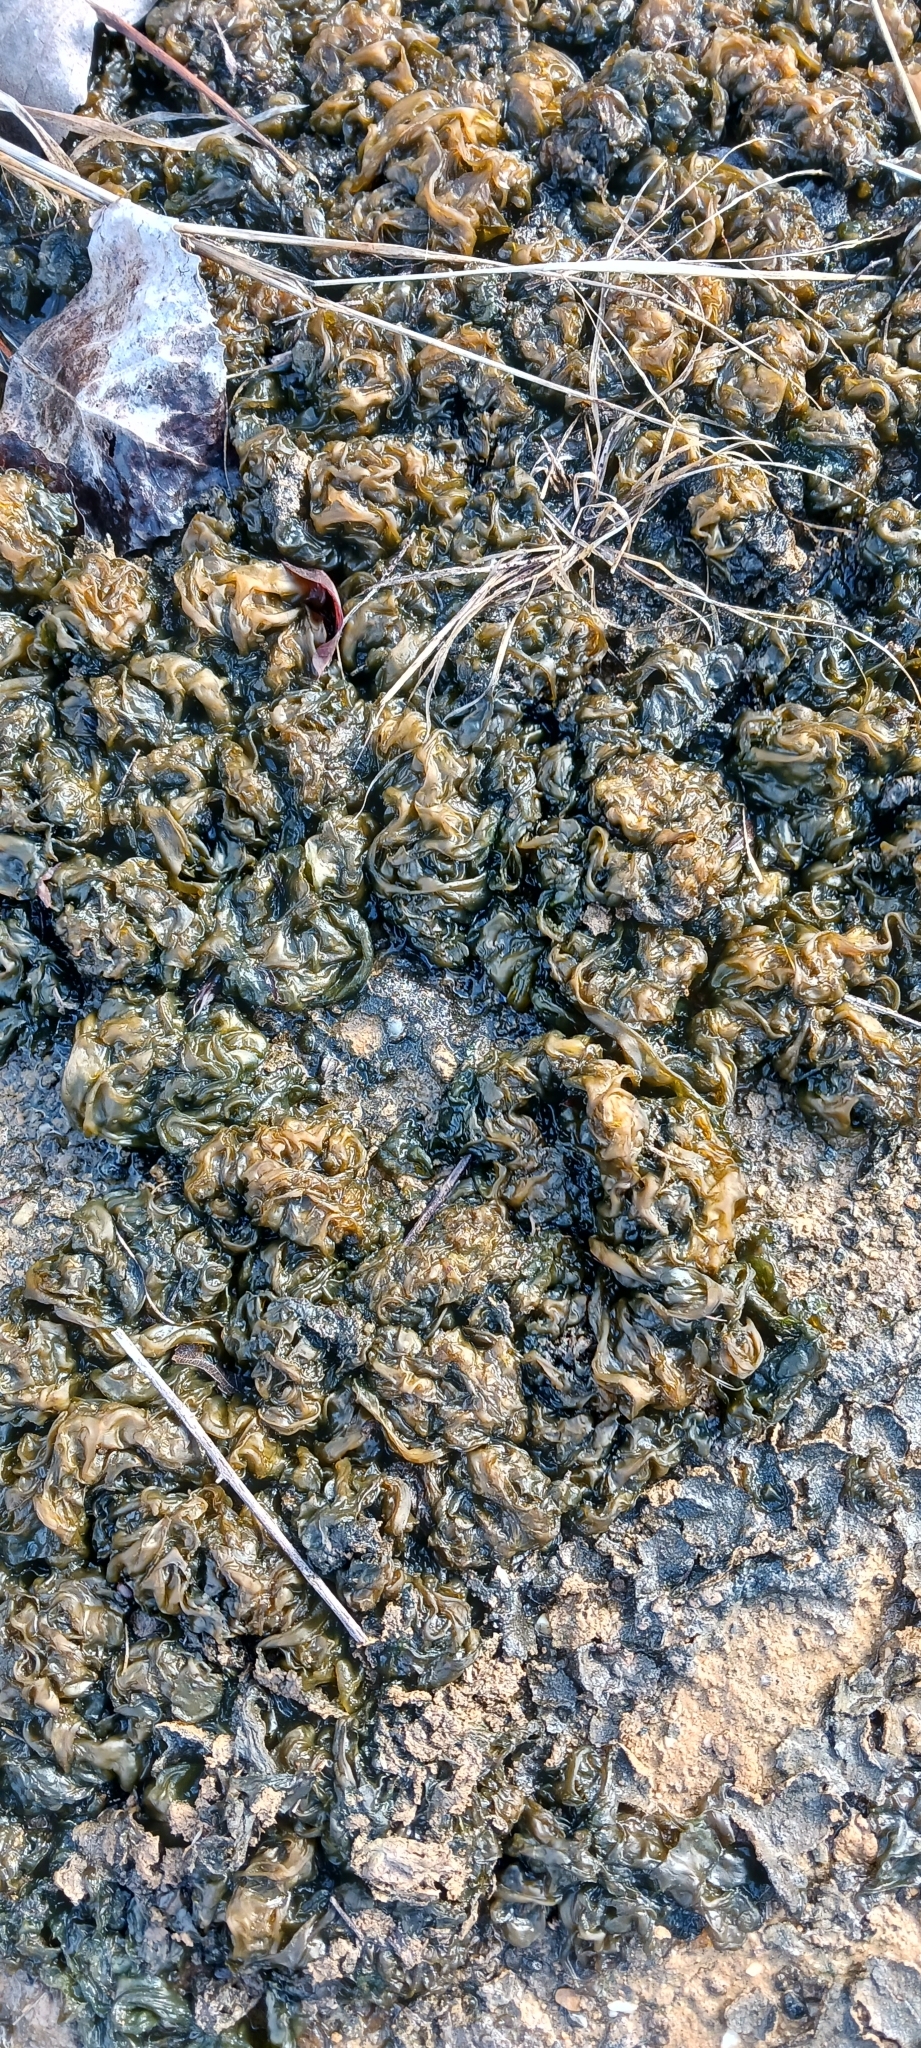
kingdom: Bacteria
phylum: Cyanobacteria
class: Cyanobacteriia
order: Cyanobacteriales
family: Nostocaceae
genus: Nostoc
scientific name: Nostoc commune
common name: Star jelly
